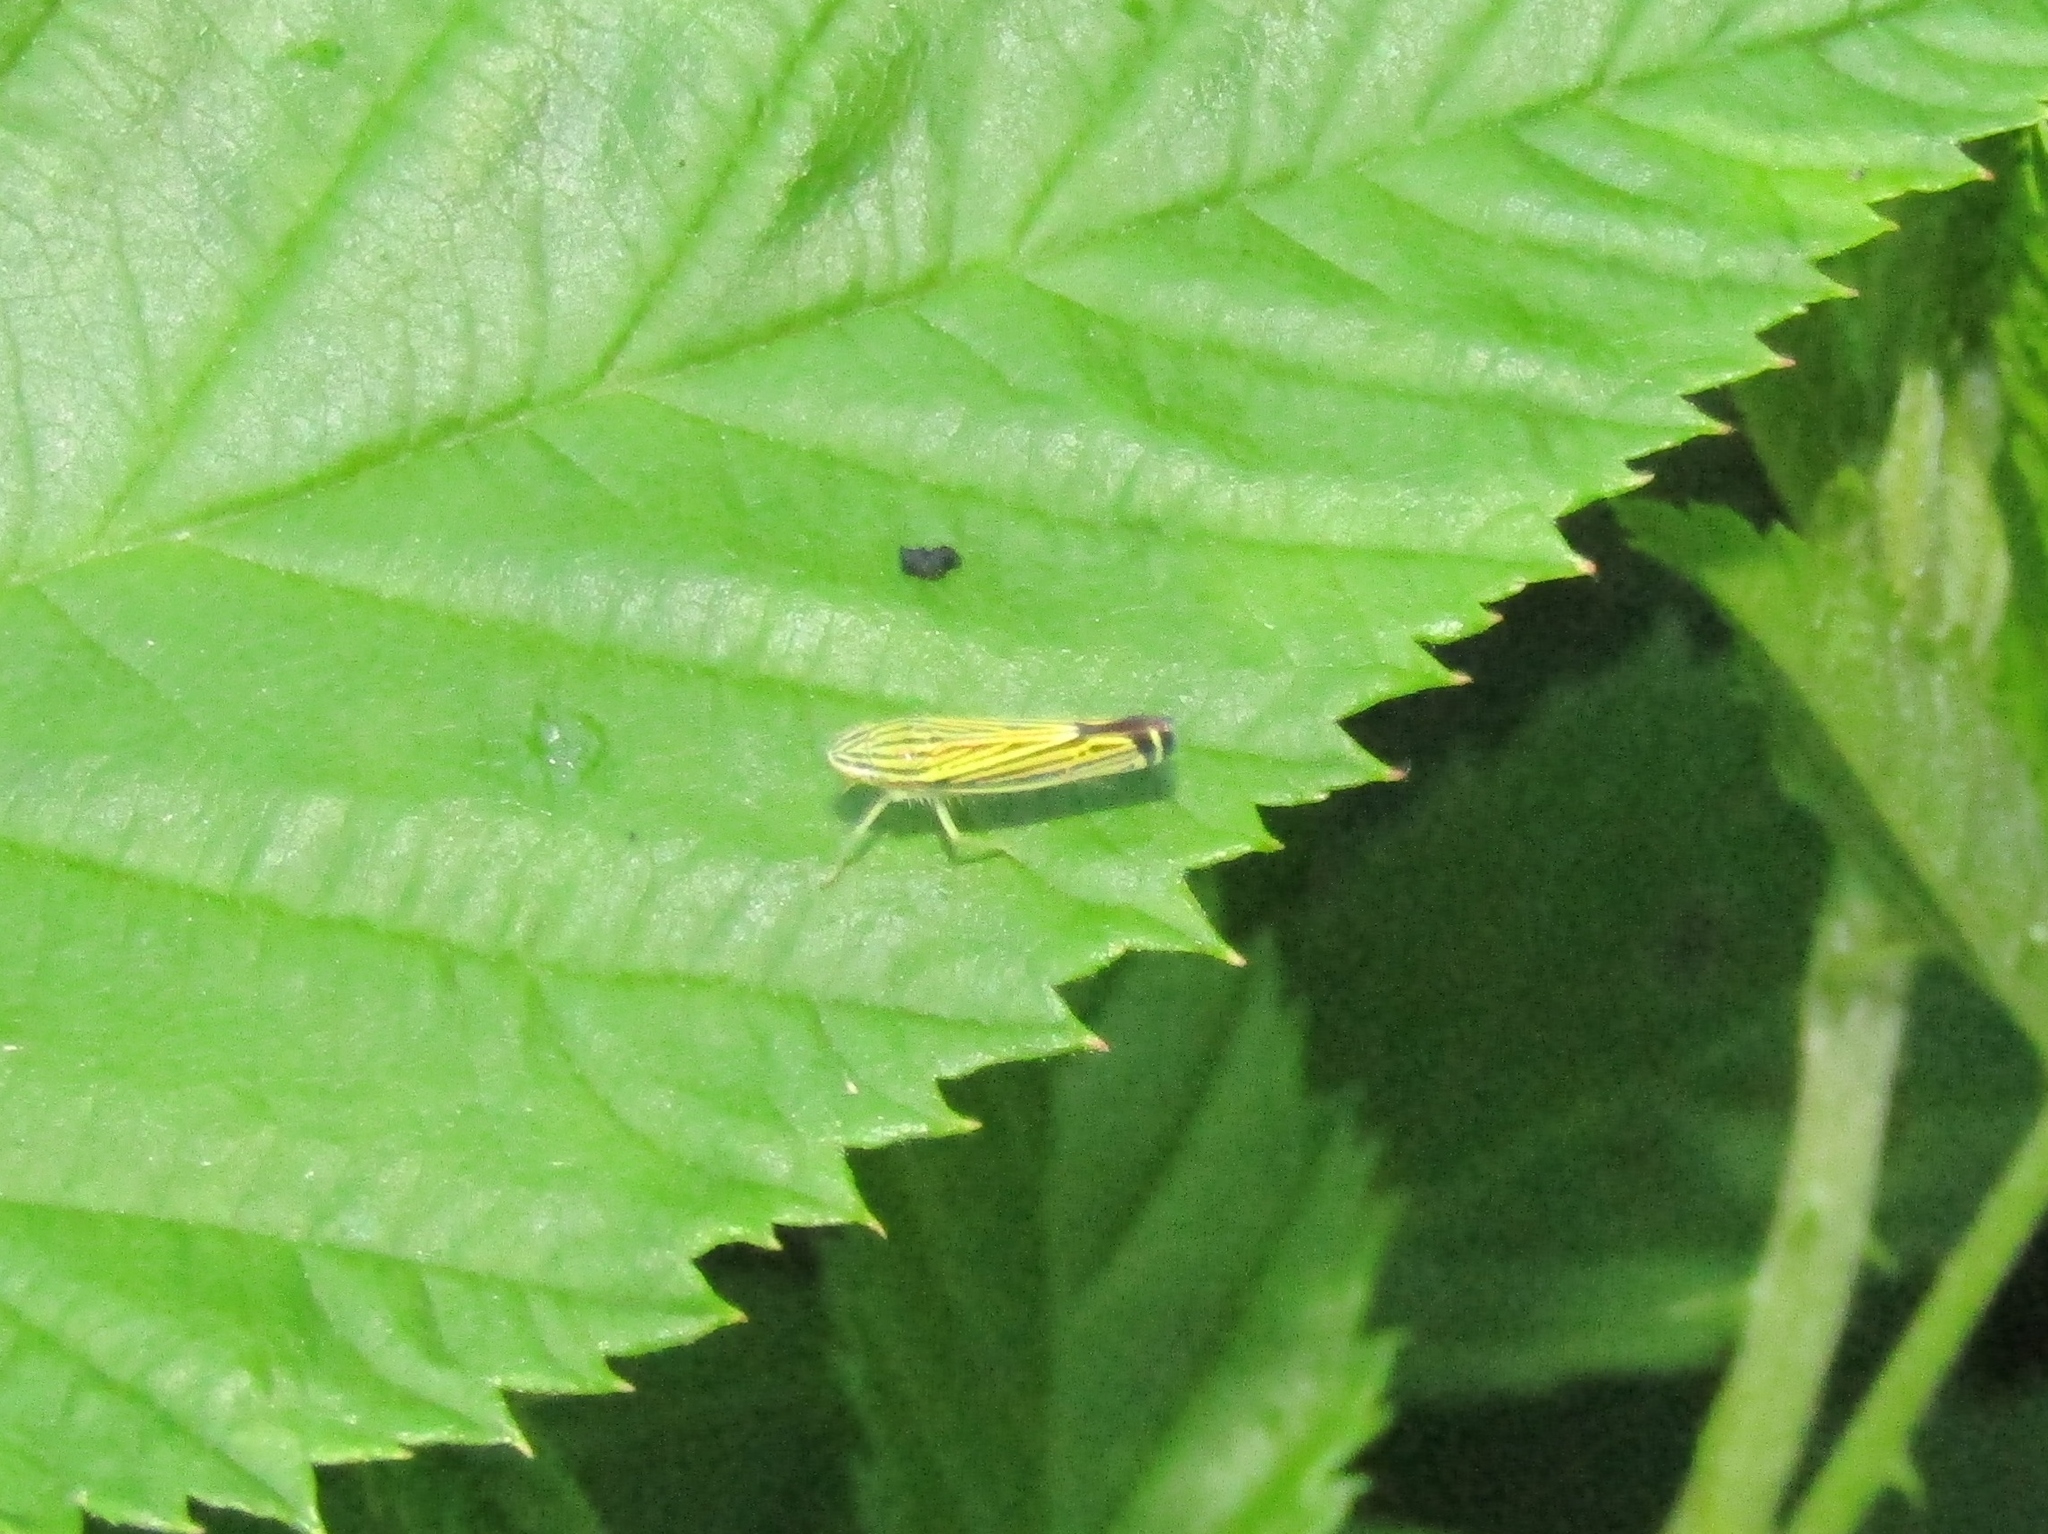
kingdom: Animalia
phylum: Arthropoda
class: Insecta
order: Hemiptera
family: Cicadellidae
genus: Sibovia
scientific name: Sibovia occatoria
